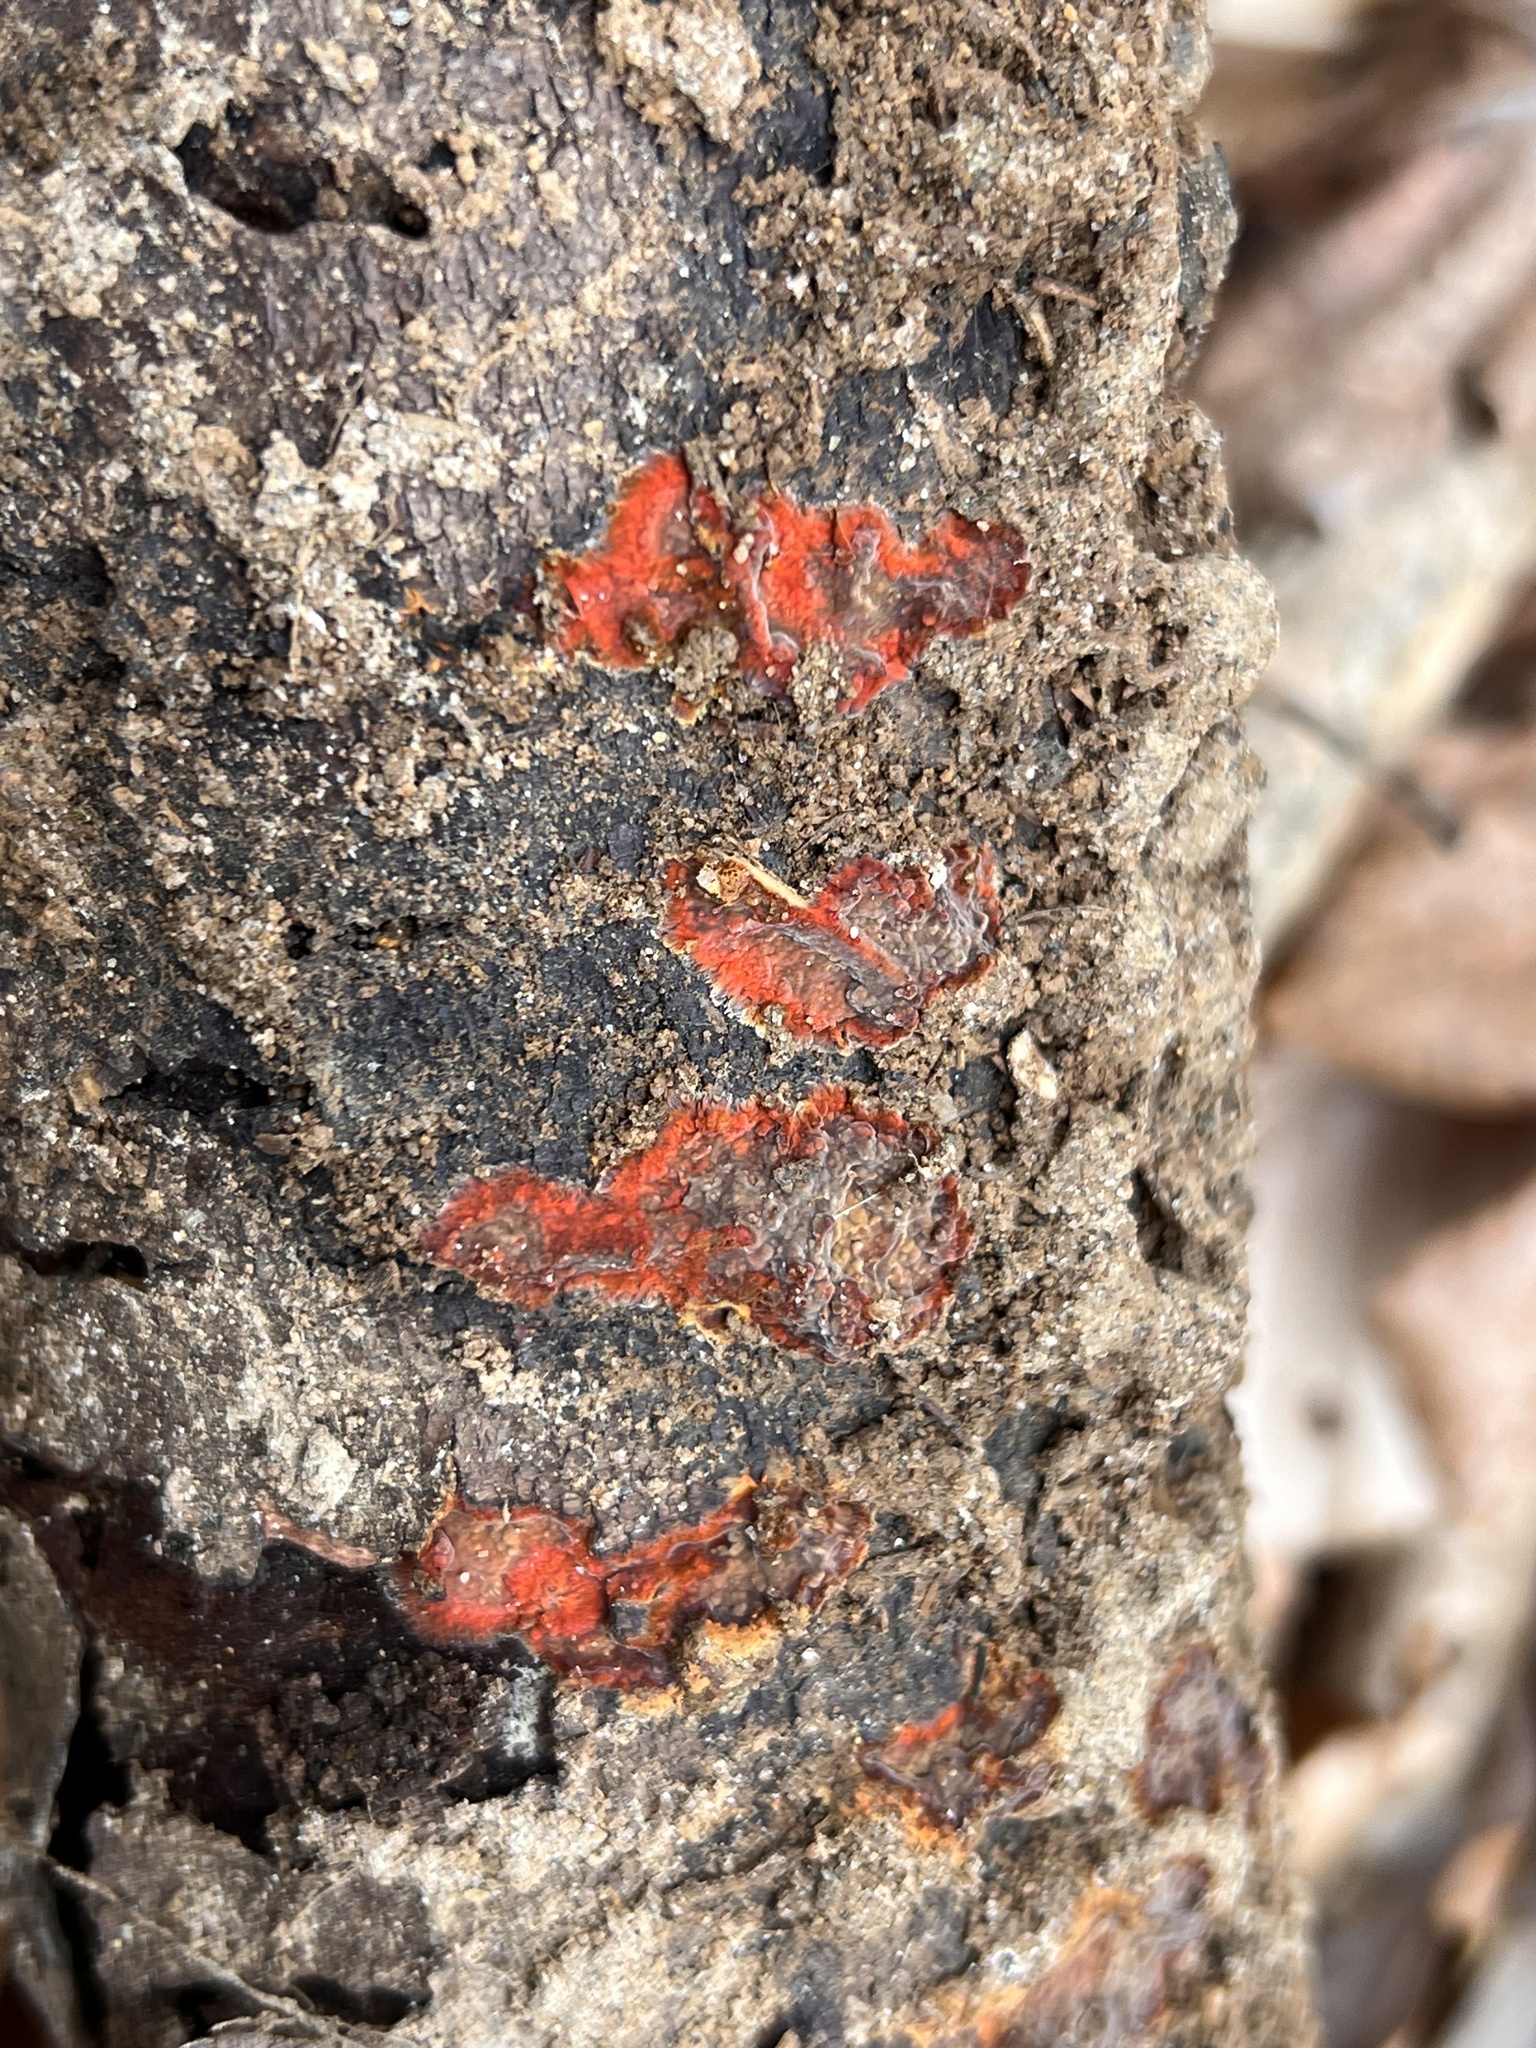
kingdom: Fungi
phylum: Basidiomycota
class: Agaricomycetes
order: Polyporales
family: Meruliaceae
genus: Phlebia
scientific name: Phlebia coccineofulva
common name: Scarlet waxcrust
